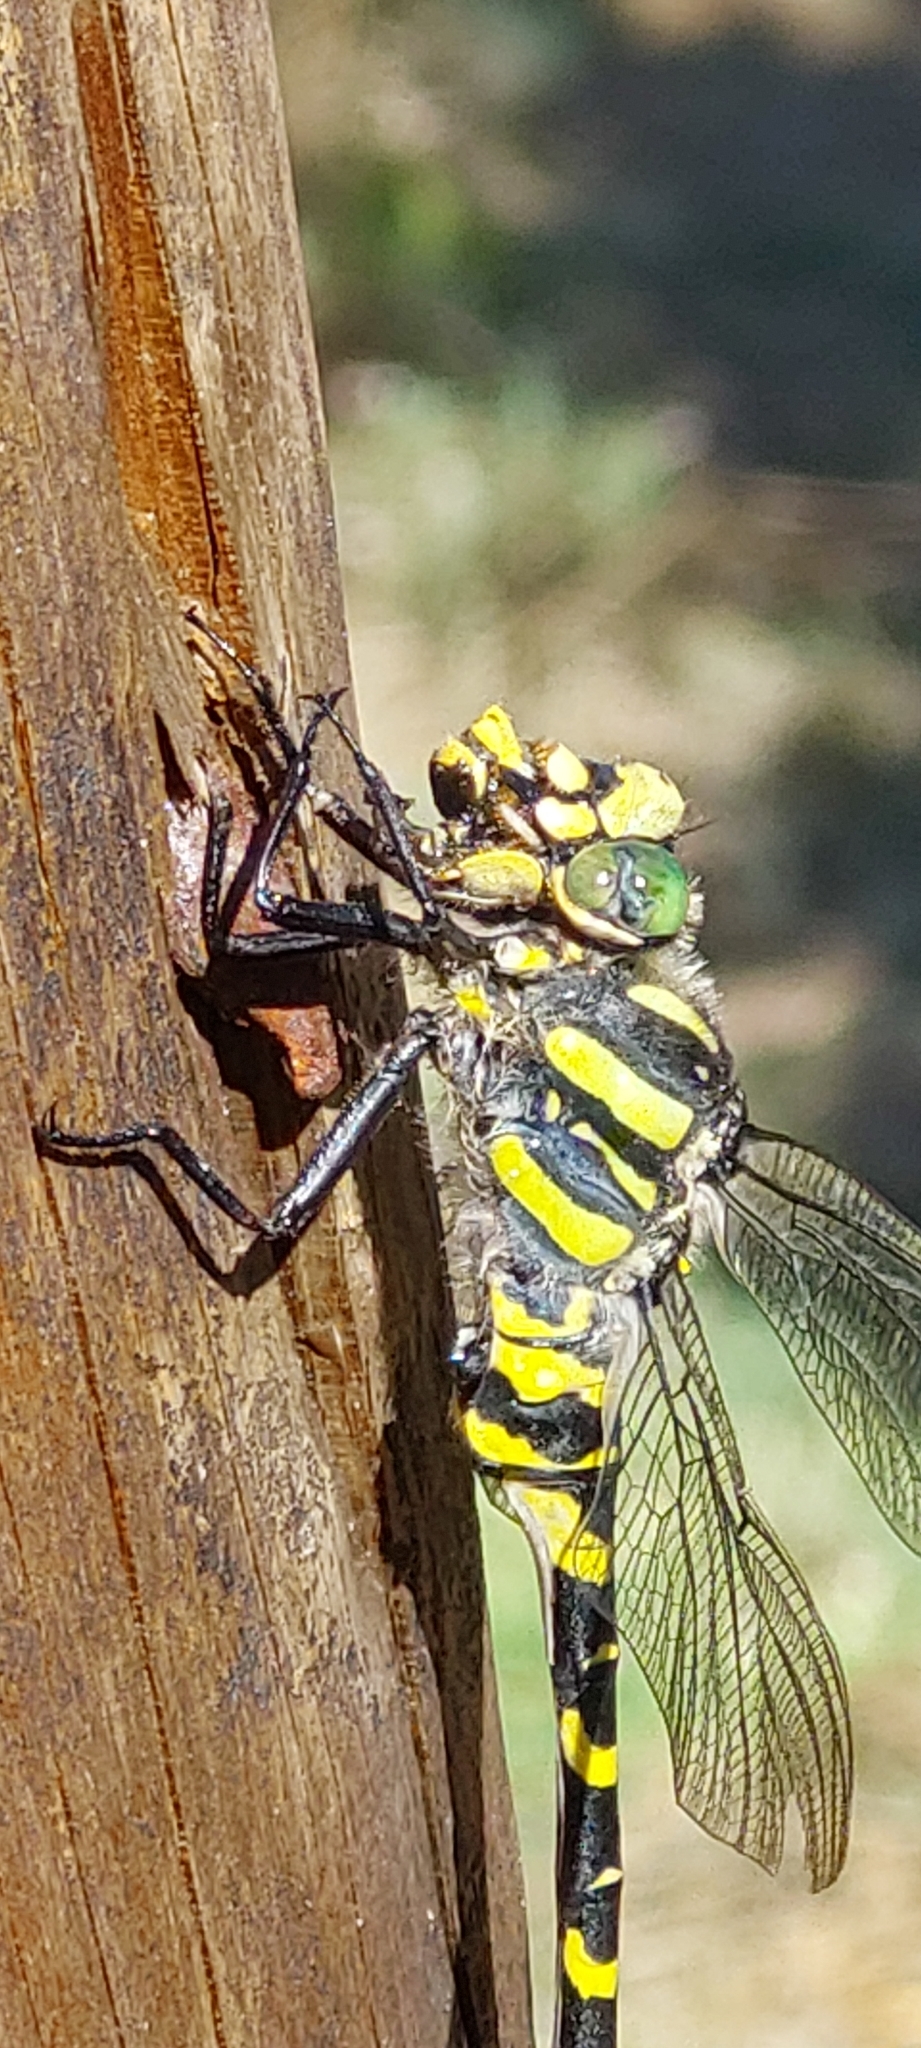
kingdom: Animalia
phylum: Arthropoda
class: Insecta
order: Odonata
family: Cordulegastridae
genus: Cordulegaster
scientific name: Cordulegaster boltonii
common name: Golden-ringed dragonfly
